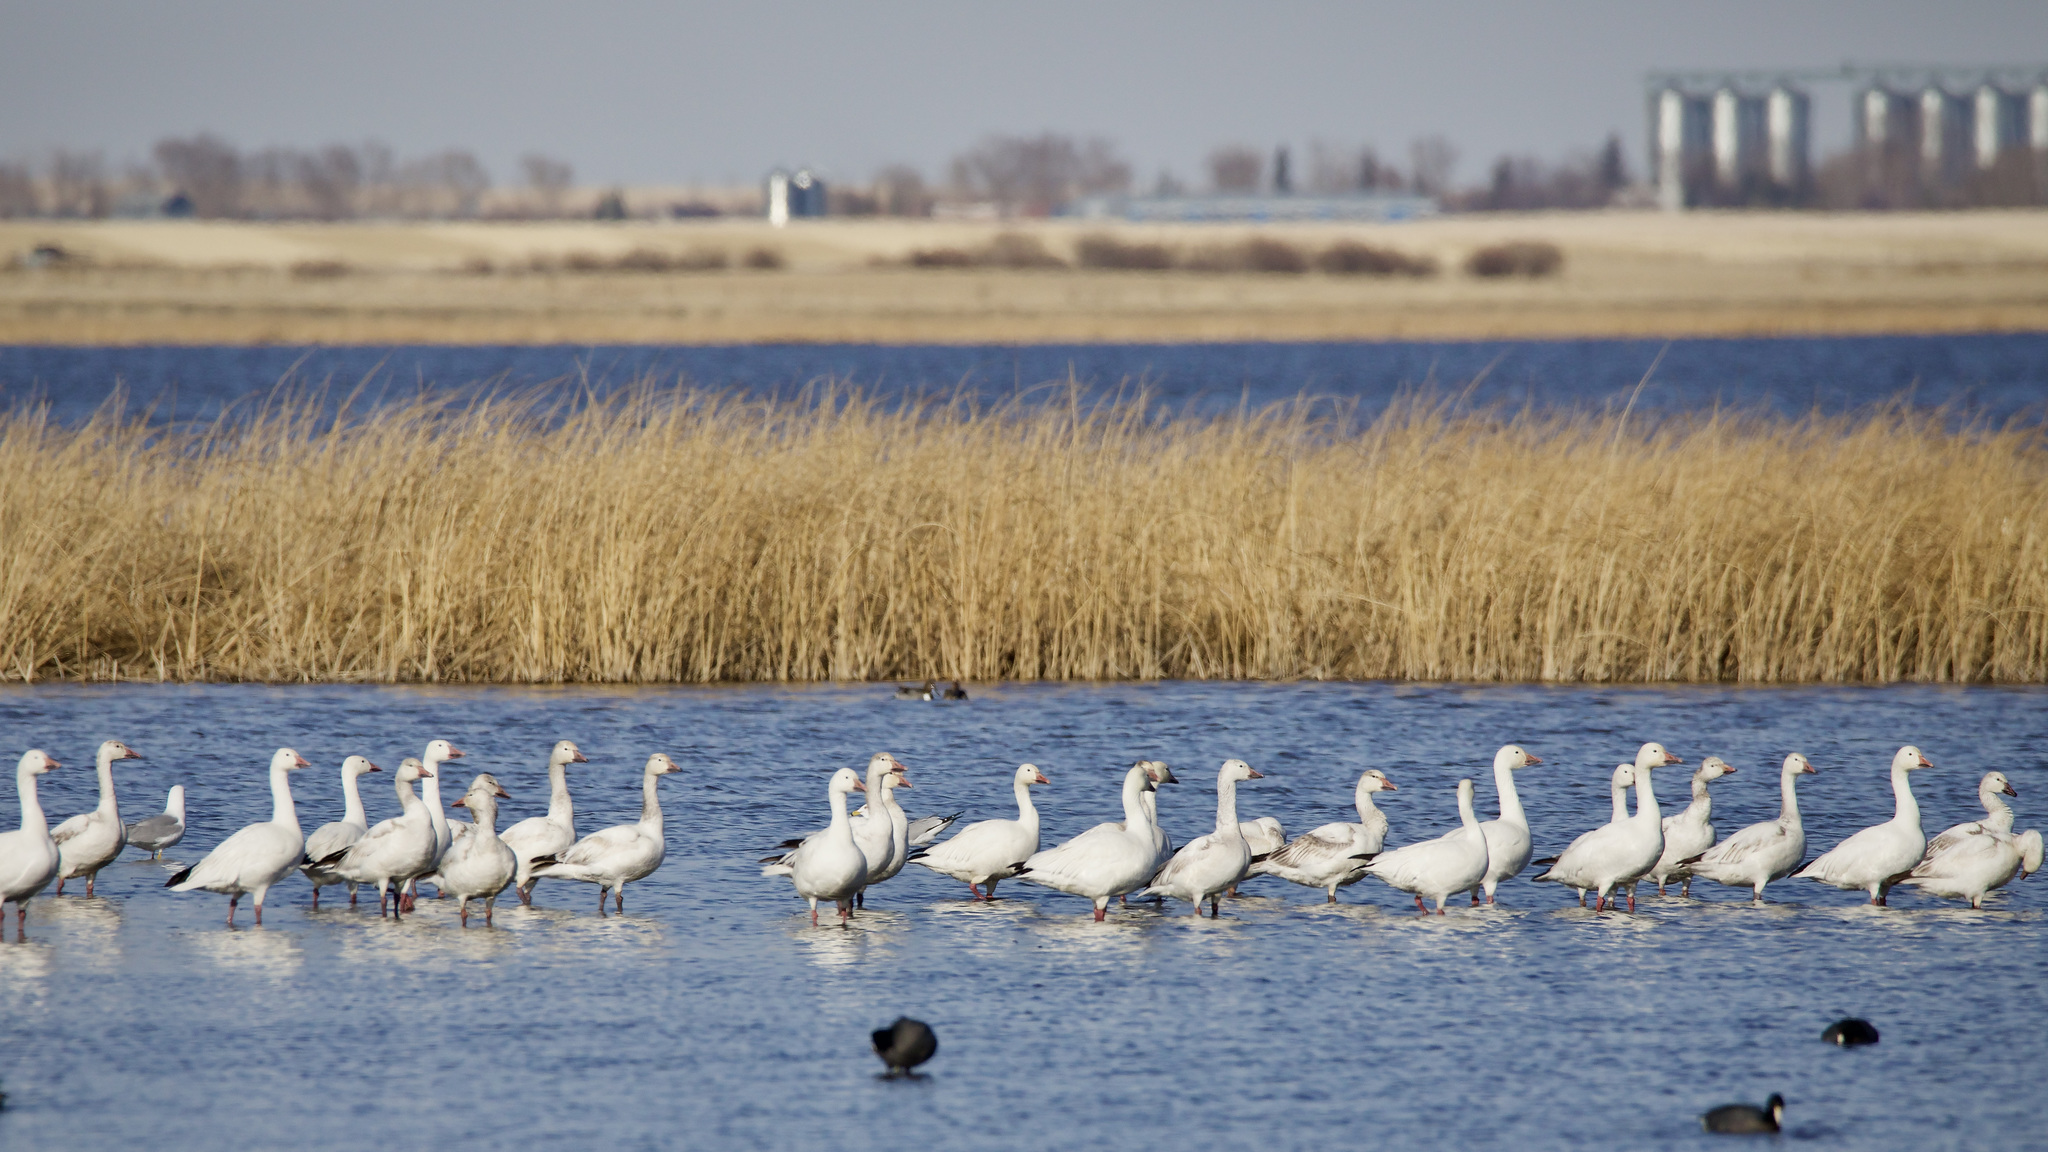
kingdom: Animalia
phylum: Chordata
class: Aves
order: Anseriformes
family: Anatidae
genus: Anser
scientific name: Anser caerulescens
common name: Snow goose
